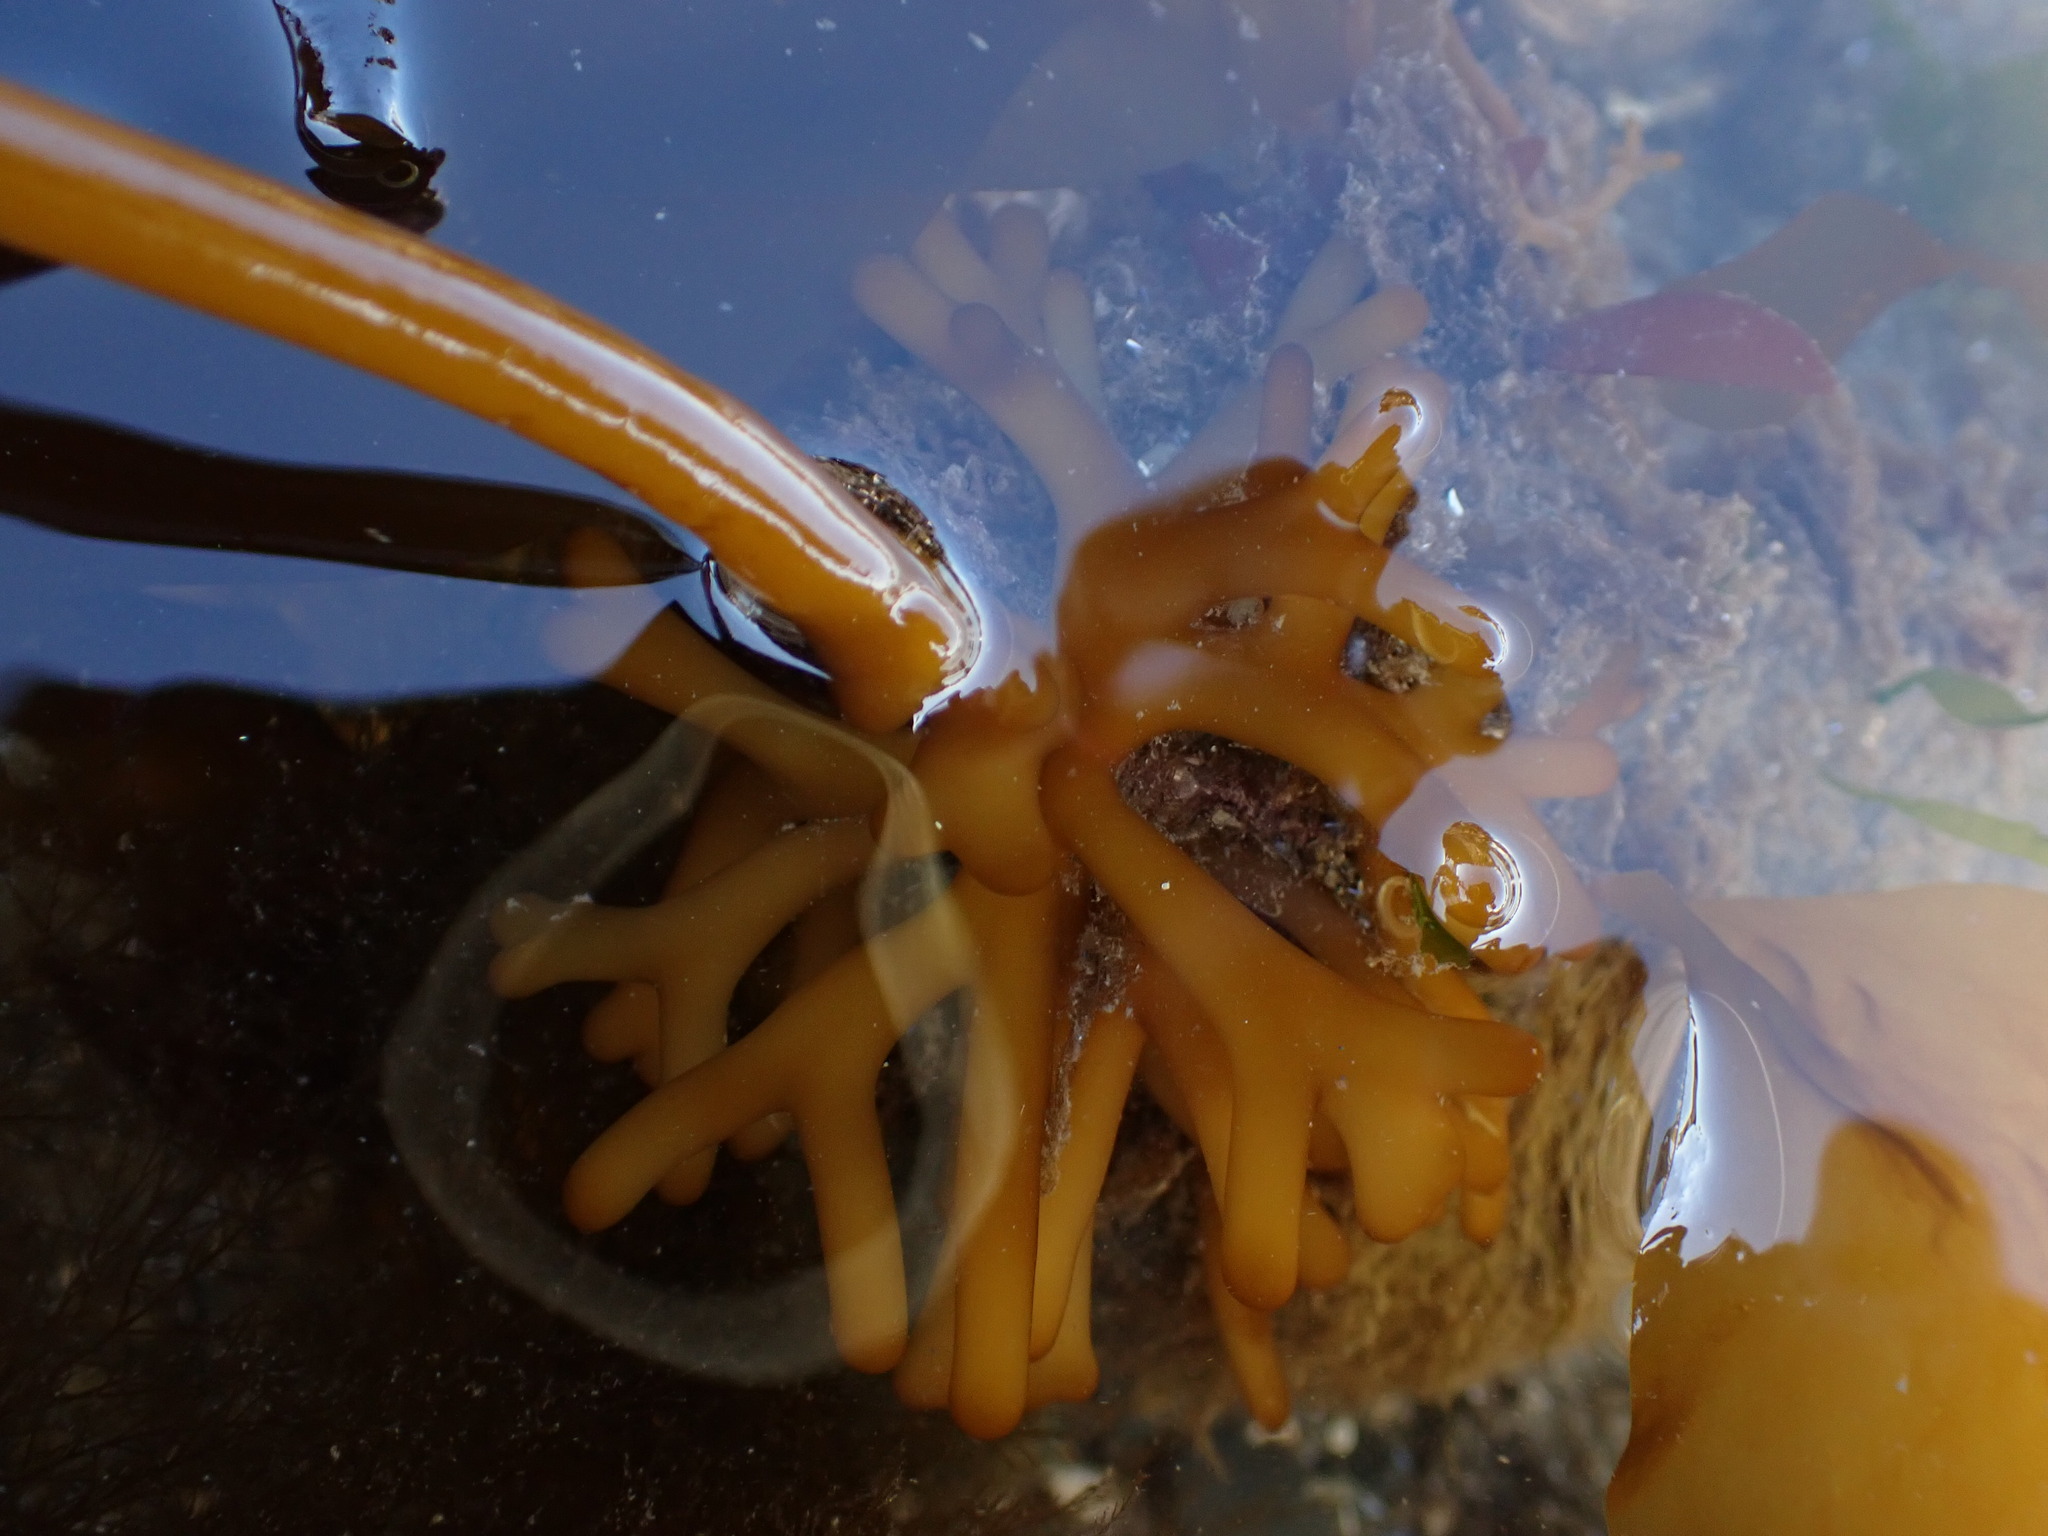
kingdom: Chromista
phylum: Ochrophyta
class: Phaeophyceae
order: Laminariales
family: Laminariaceae
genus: Nereocystis
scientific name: Nereocystis luetkeana
